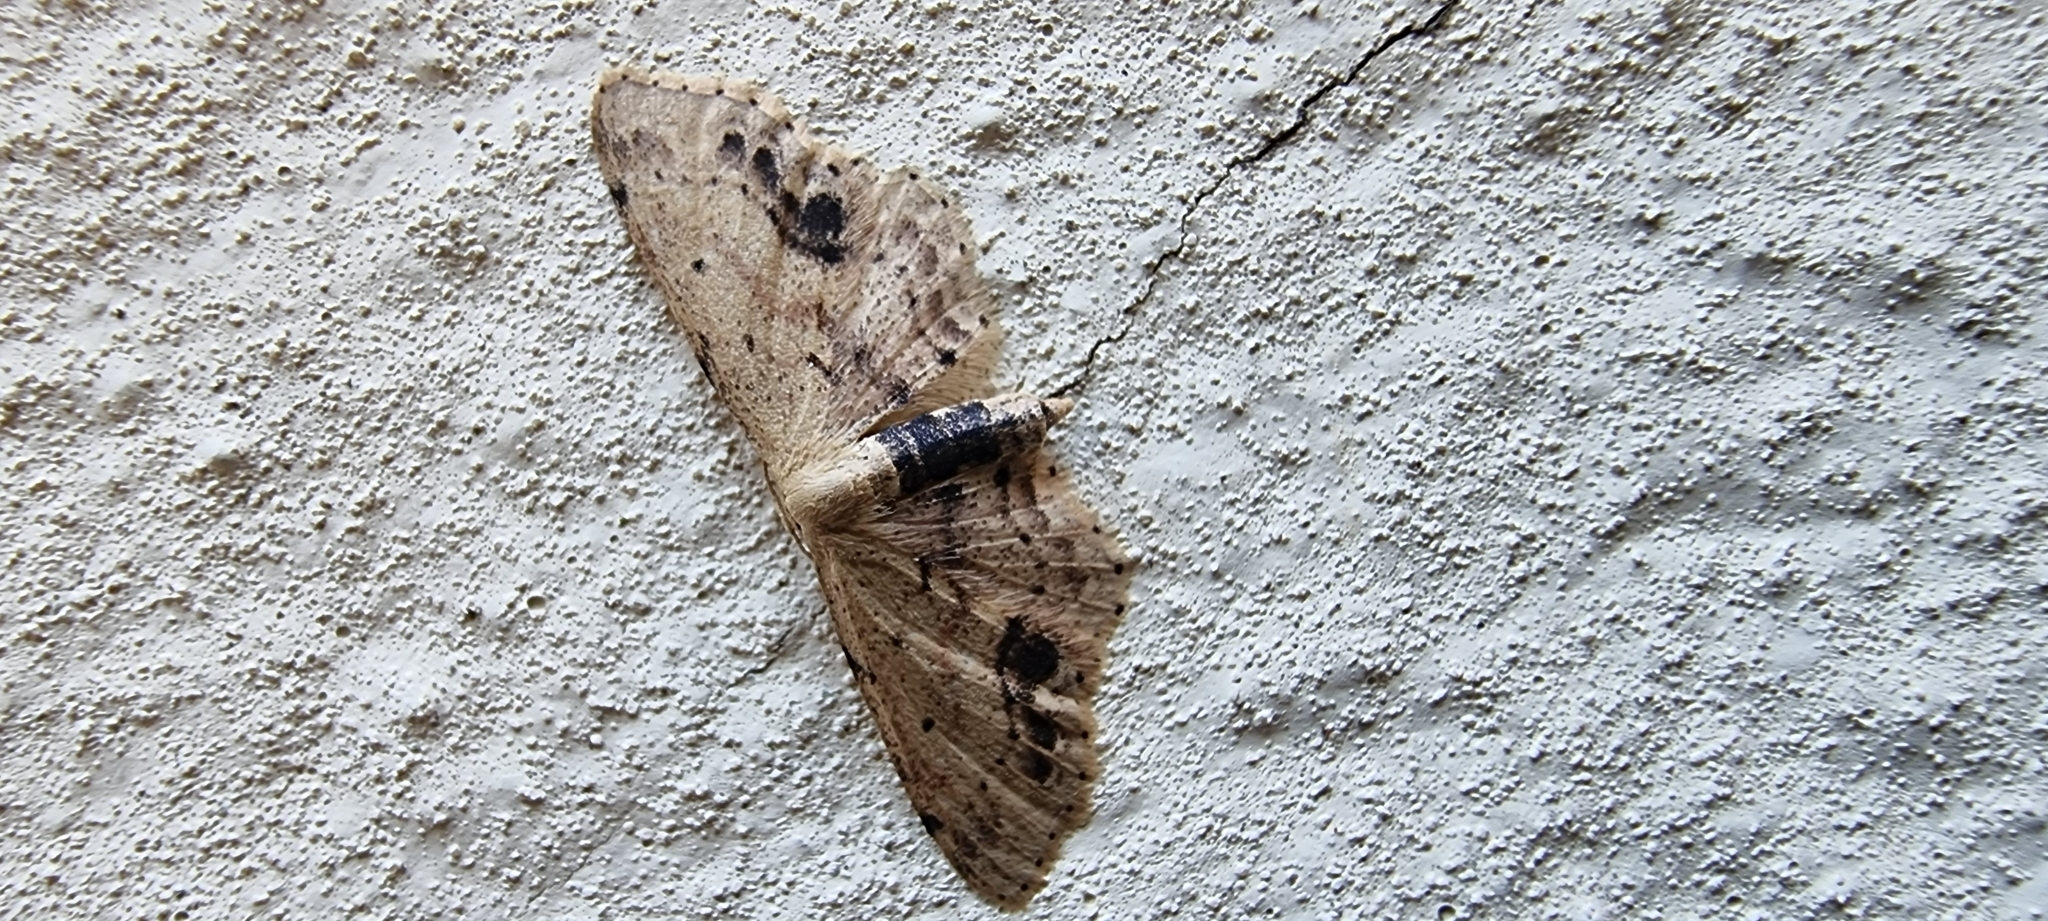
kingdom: Animalia
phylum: Arthropoda
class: Insecta
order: Lepidoptera
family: Geometridae
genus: Idaea
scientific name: Idaea dimidiata
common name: Single-dotted wave
